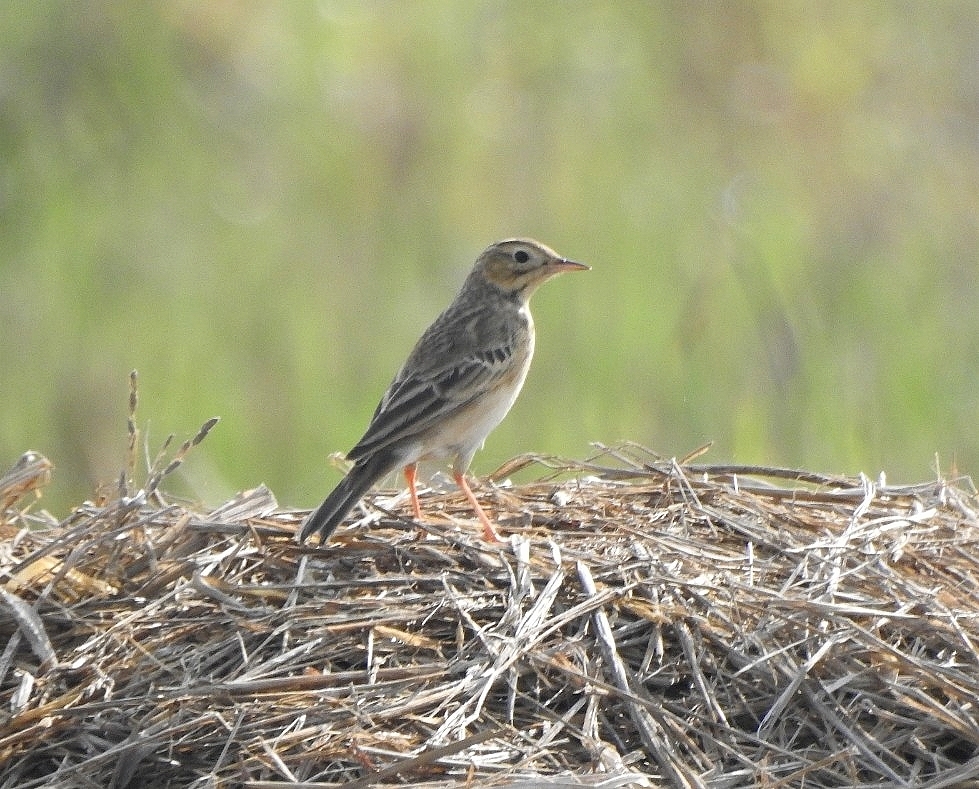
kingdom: Animalia
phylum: Chordata
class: Aves
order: Passeriformes
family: Motacillidae
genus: Anthus
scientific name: Anthus godlewskii
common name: Blyth's pipit
